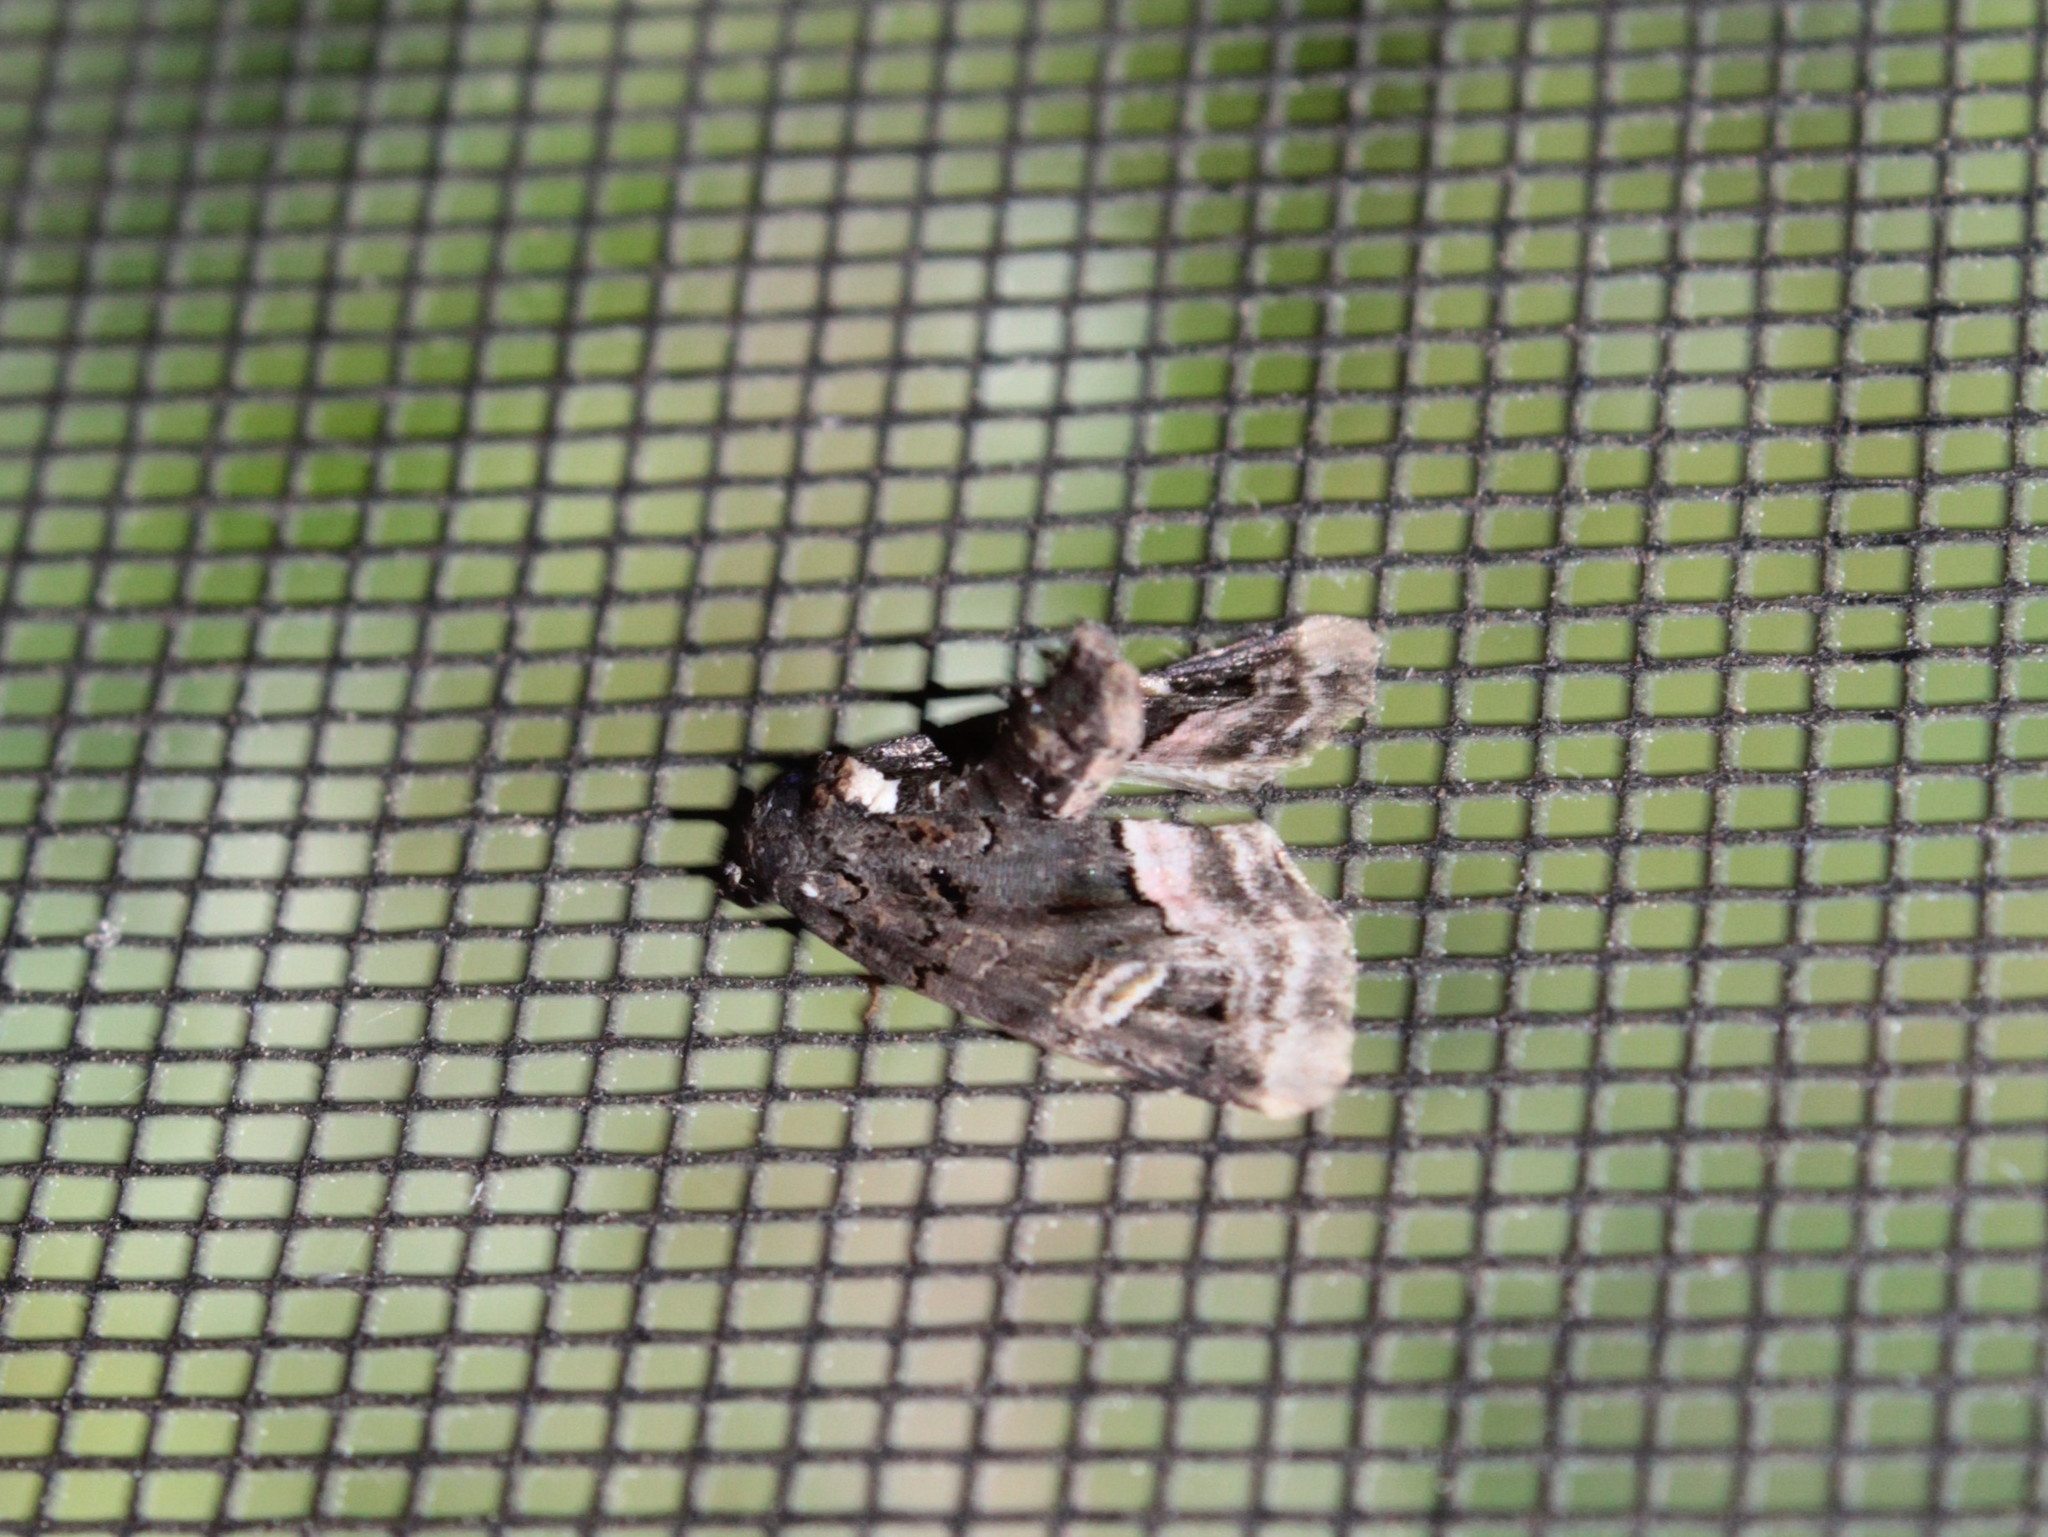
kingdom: Animalia
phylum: Arthropoda
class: Insecta
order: Lepidoptera
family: Noctuidae
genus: Homophoberia
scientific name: Homophoberia apicosa
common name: Black wedge-spot
